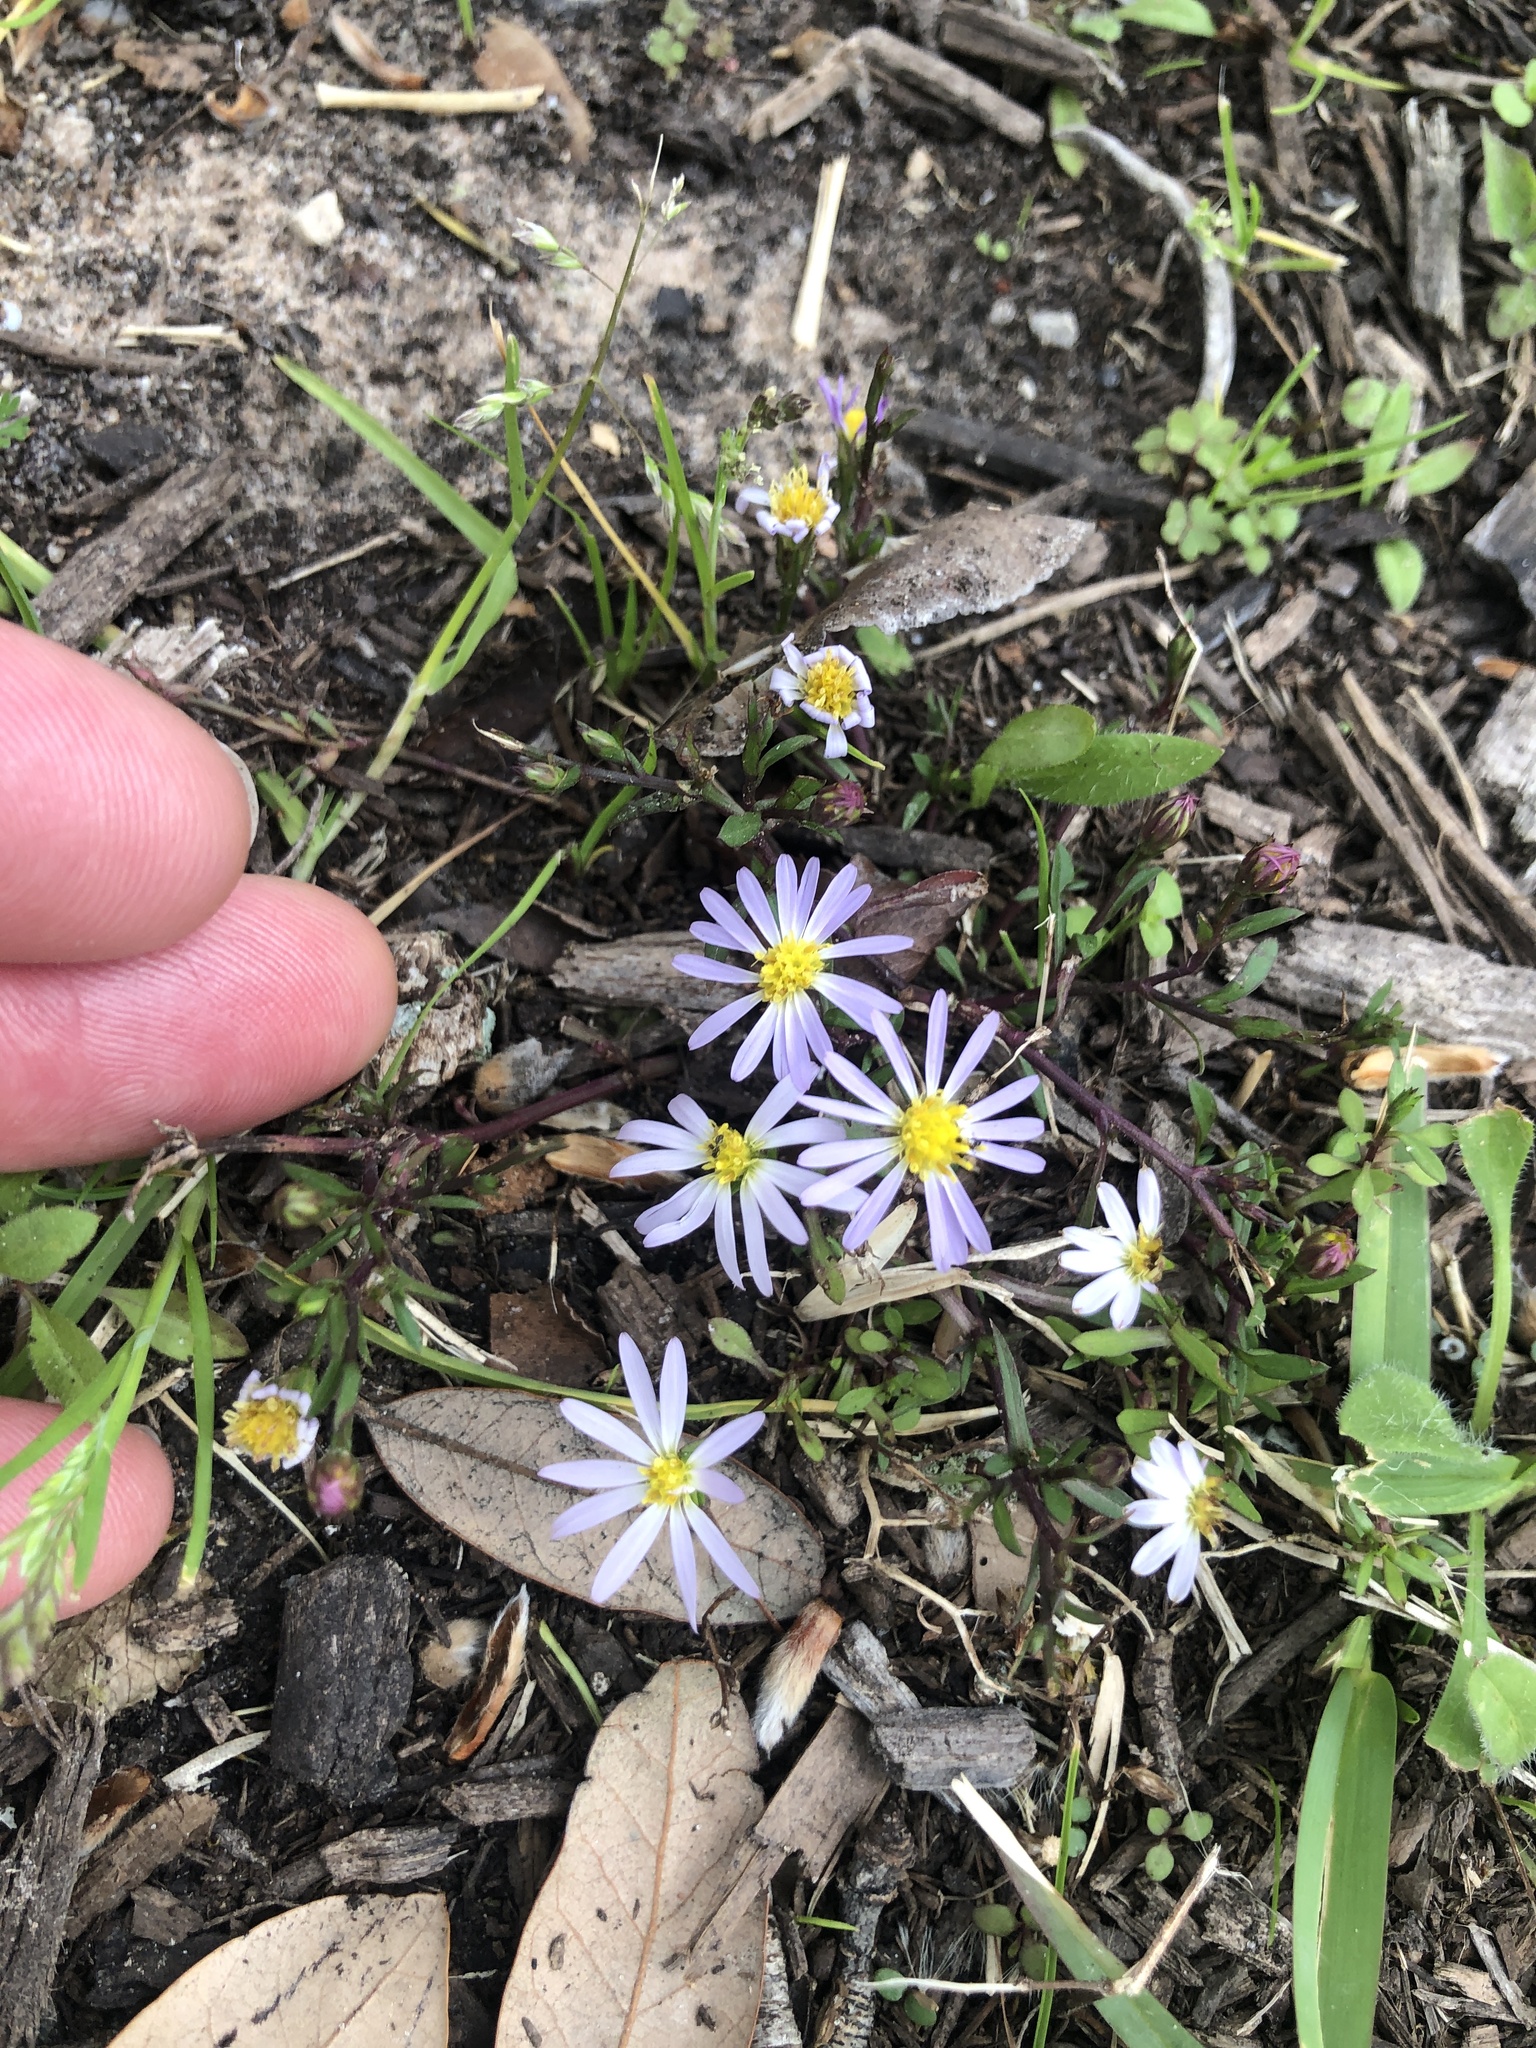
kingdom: Plantae
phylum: Tracheophyta
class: Magnoliopsida
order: Asterales
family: Asteraceae
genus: Symphyotrichum
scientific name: Symphyotrichum divaricatum
